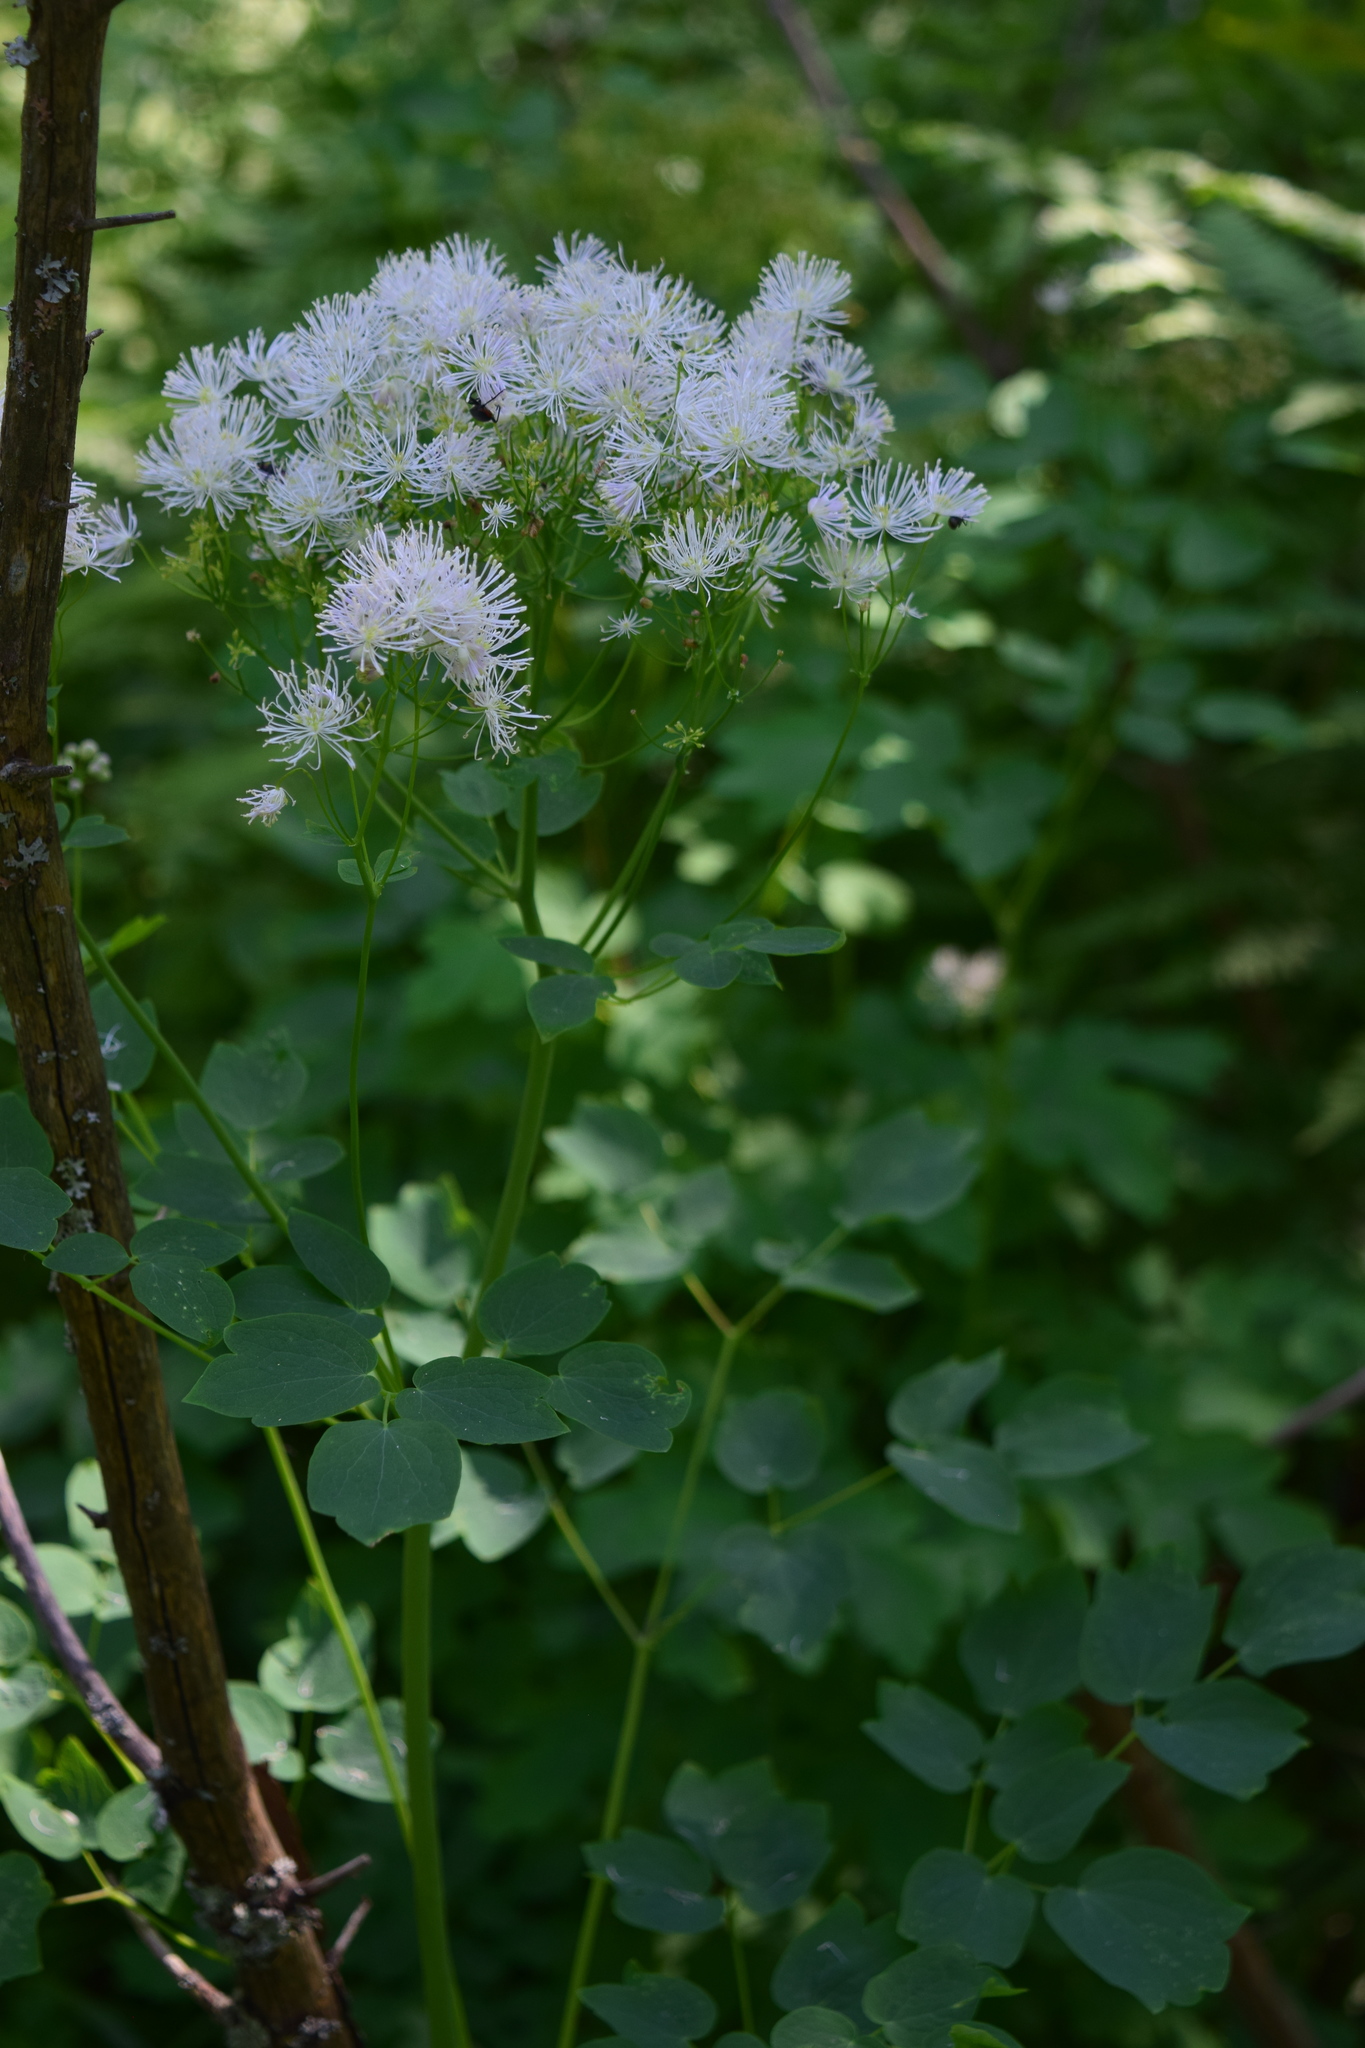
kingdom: Plantae
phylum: Tracheophyta
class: Magnoliopsida
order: Ranunculales
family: Ranunculaceae
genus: Thalictrum
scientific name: Thalictrum aquilegiifolium
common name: French meadow-rue
